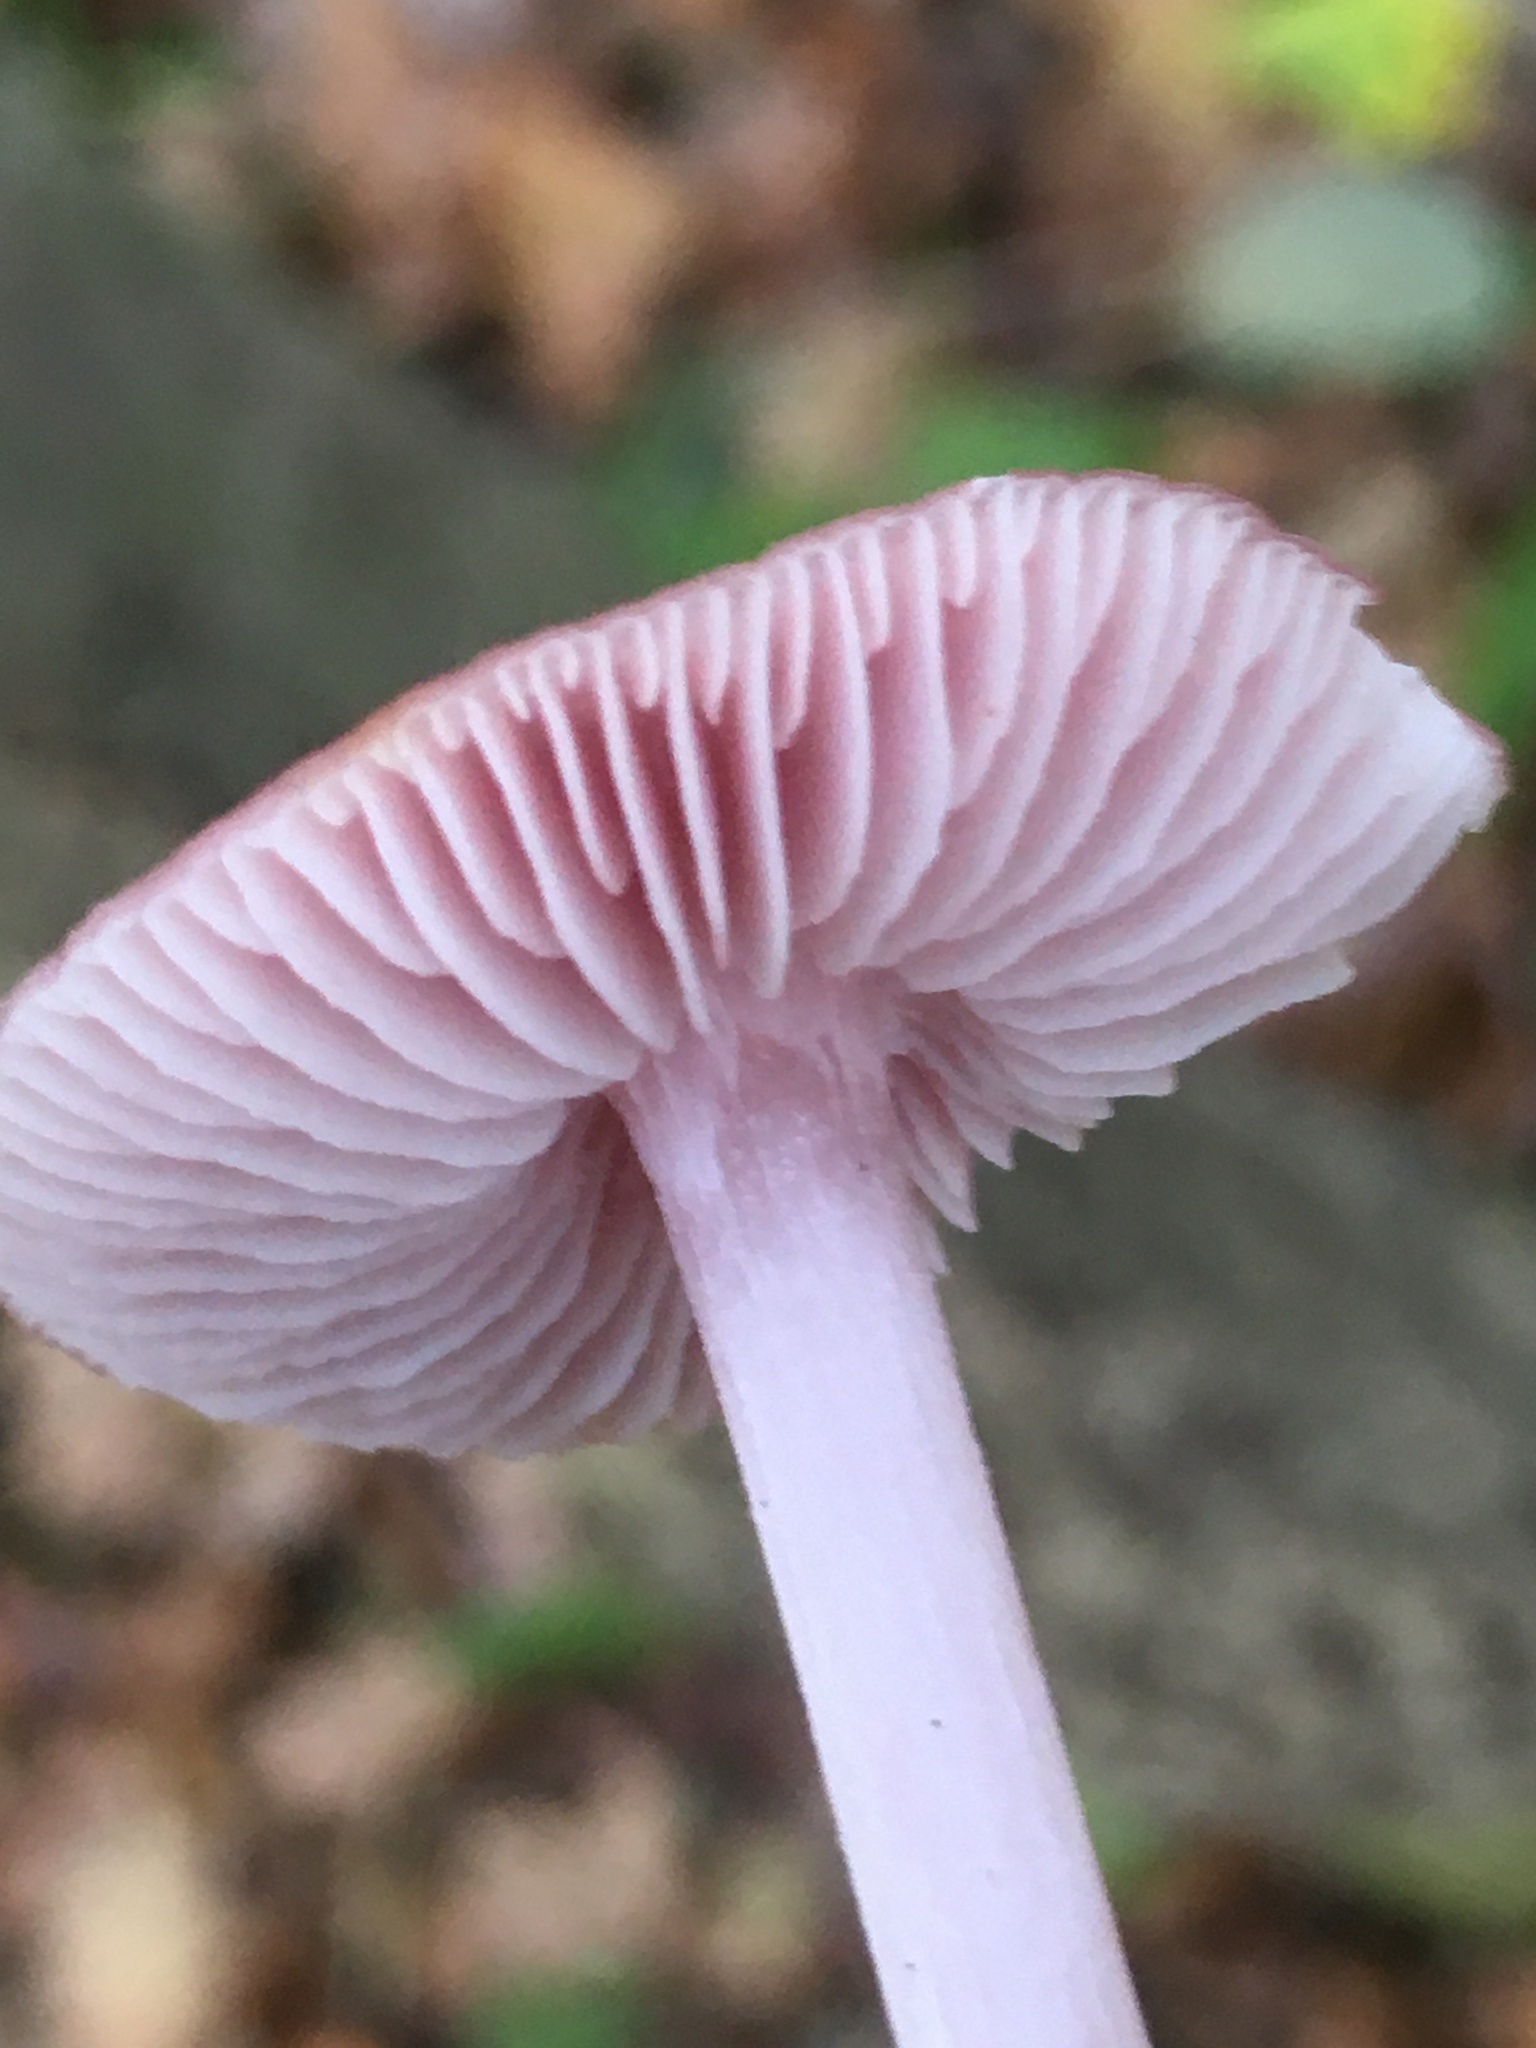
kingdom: Fungi
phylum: Basidiomycota
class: Agaricomycetes
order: Agaricales
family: Mycenaceae
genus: Mycena
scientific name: Mycena rosea
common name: Rosy bonnet
